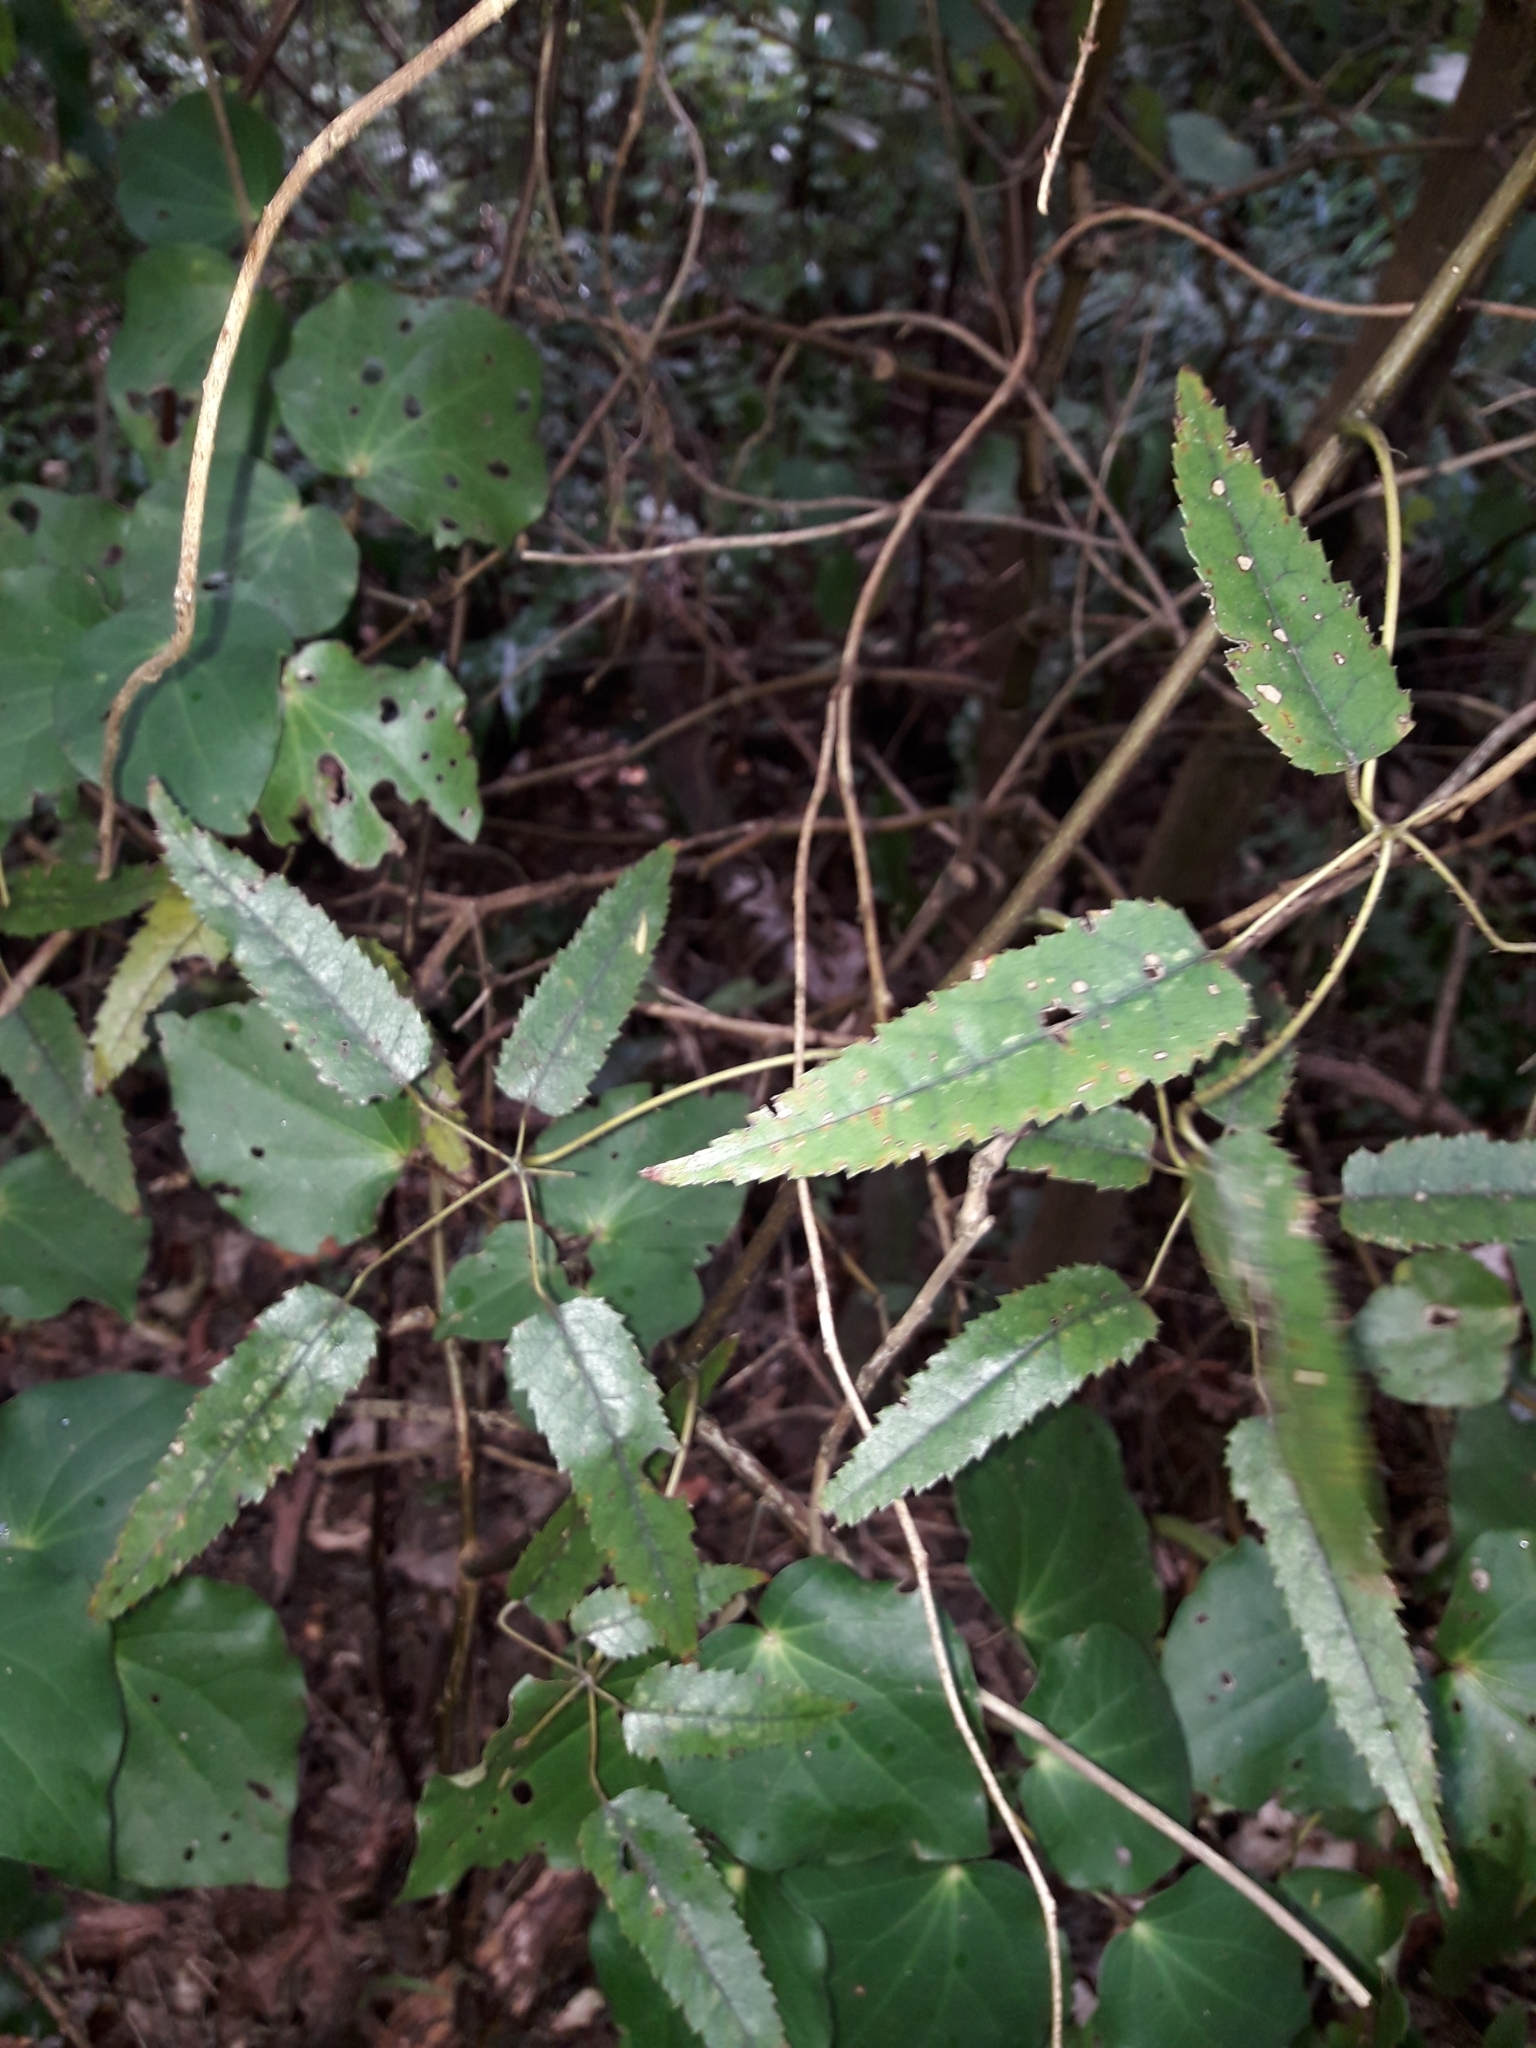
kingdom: Plantae
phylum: Tracheophyta
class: Magnoliopsida
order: Rosales
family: Rosaceae
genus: Rubus
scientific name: Rubus cissoides
